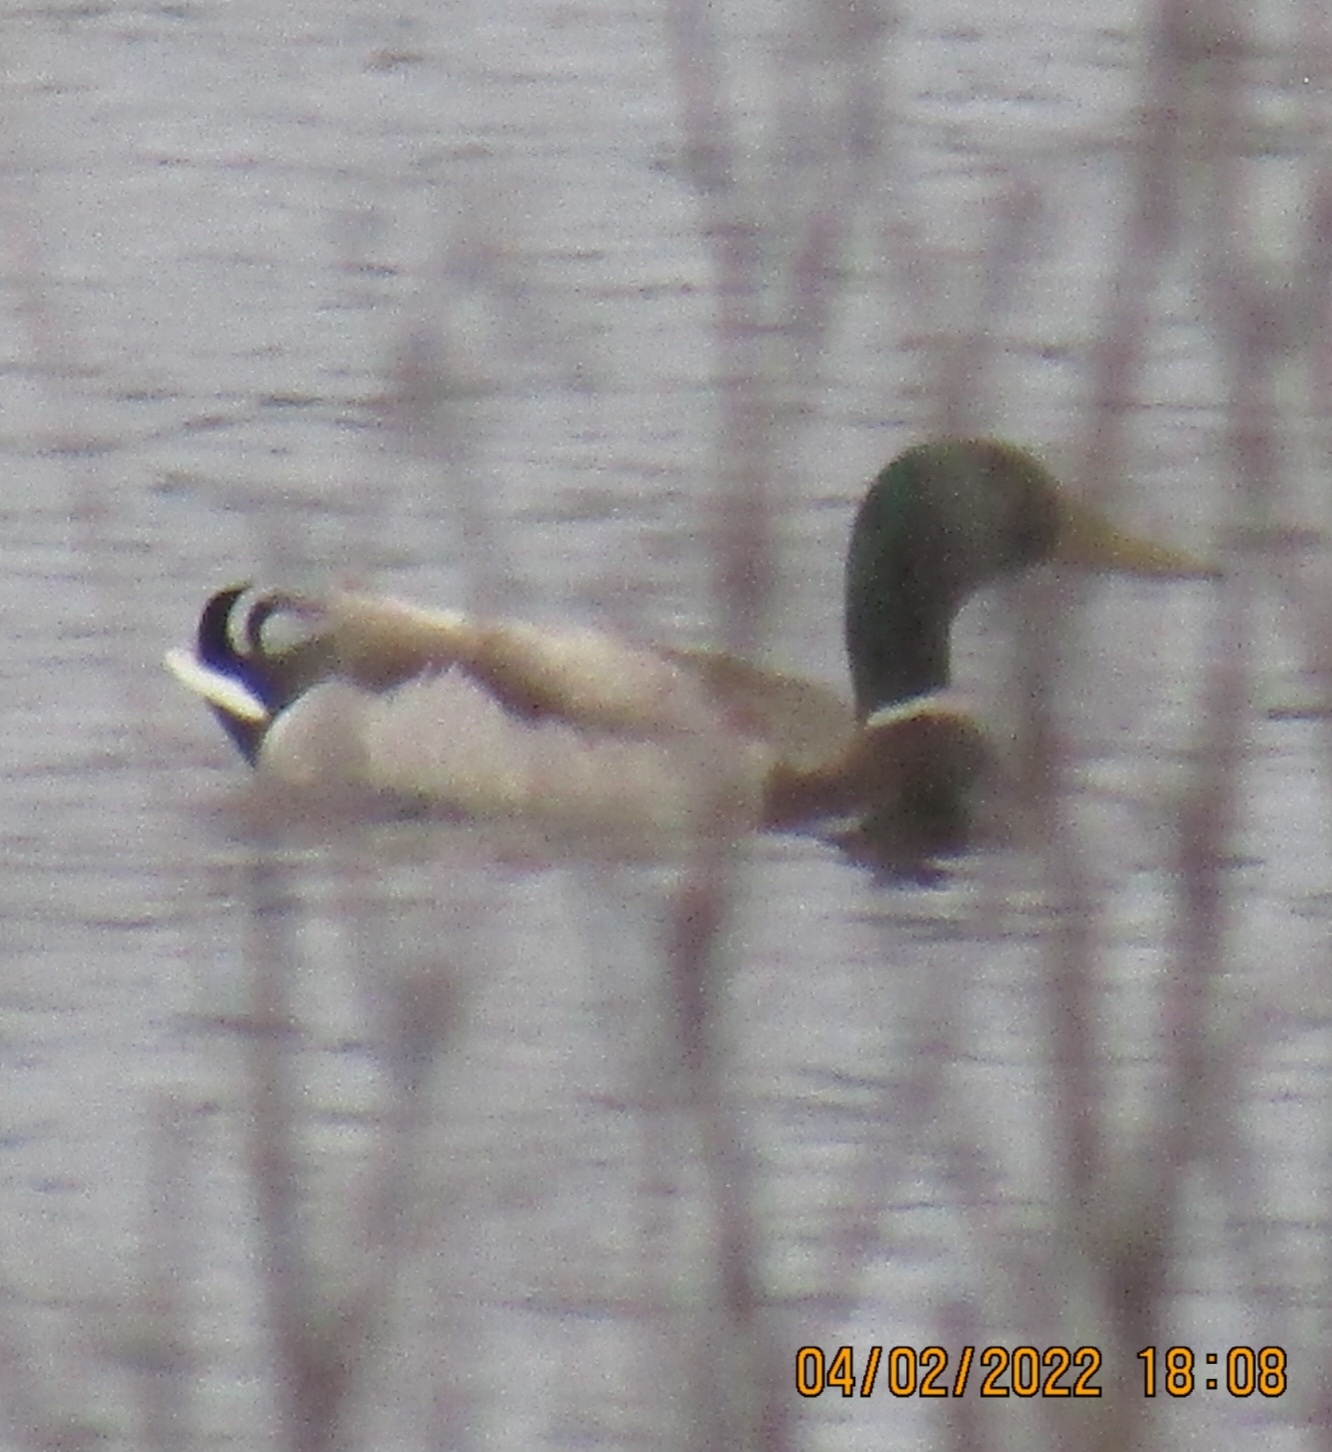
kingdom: Animalia
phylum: Chordata
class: Aves
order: Anseriformes
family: Anatidae
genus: Anas
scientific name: Anas platyrhynchos
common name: Mallard
